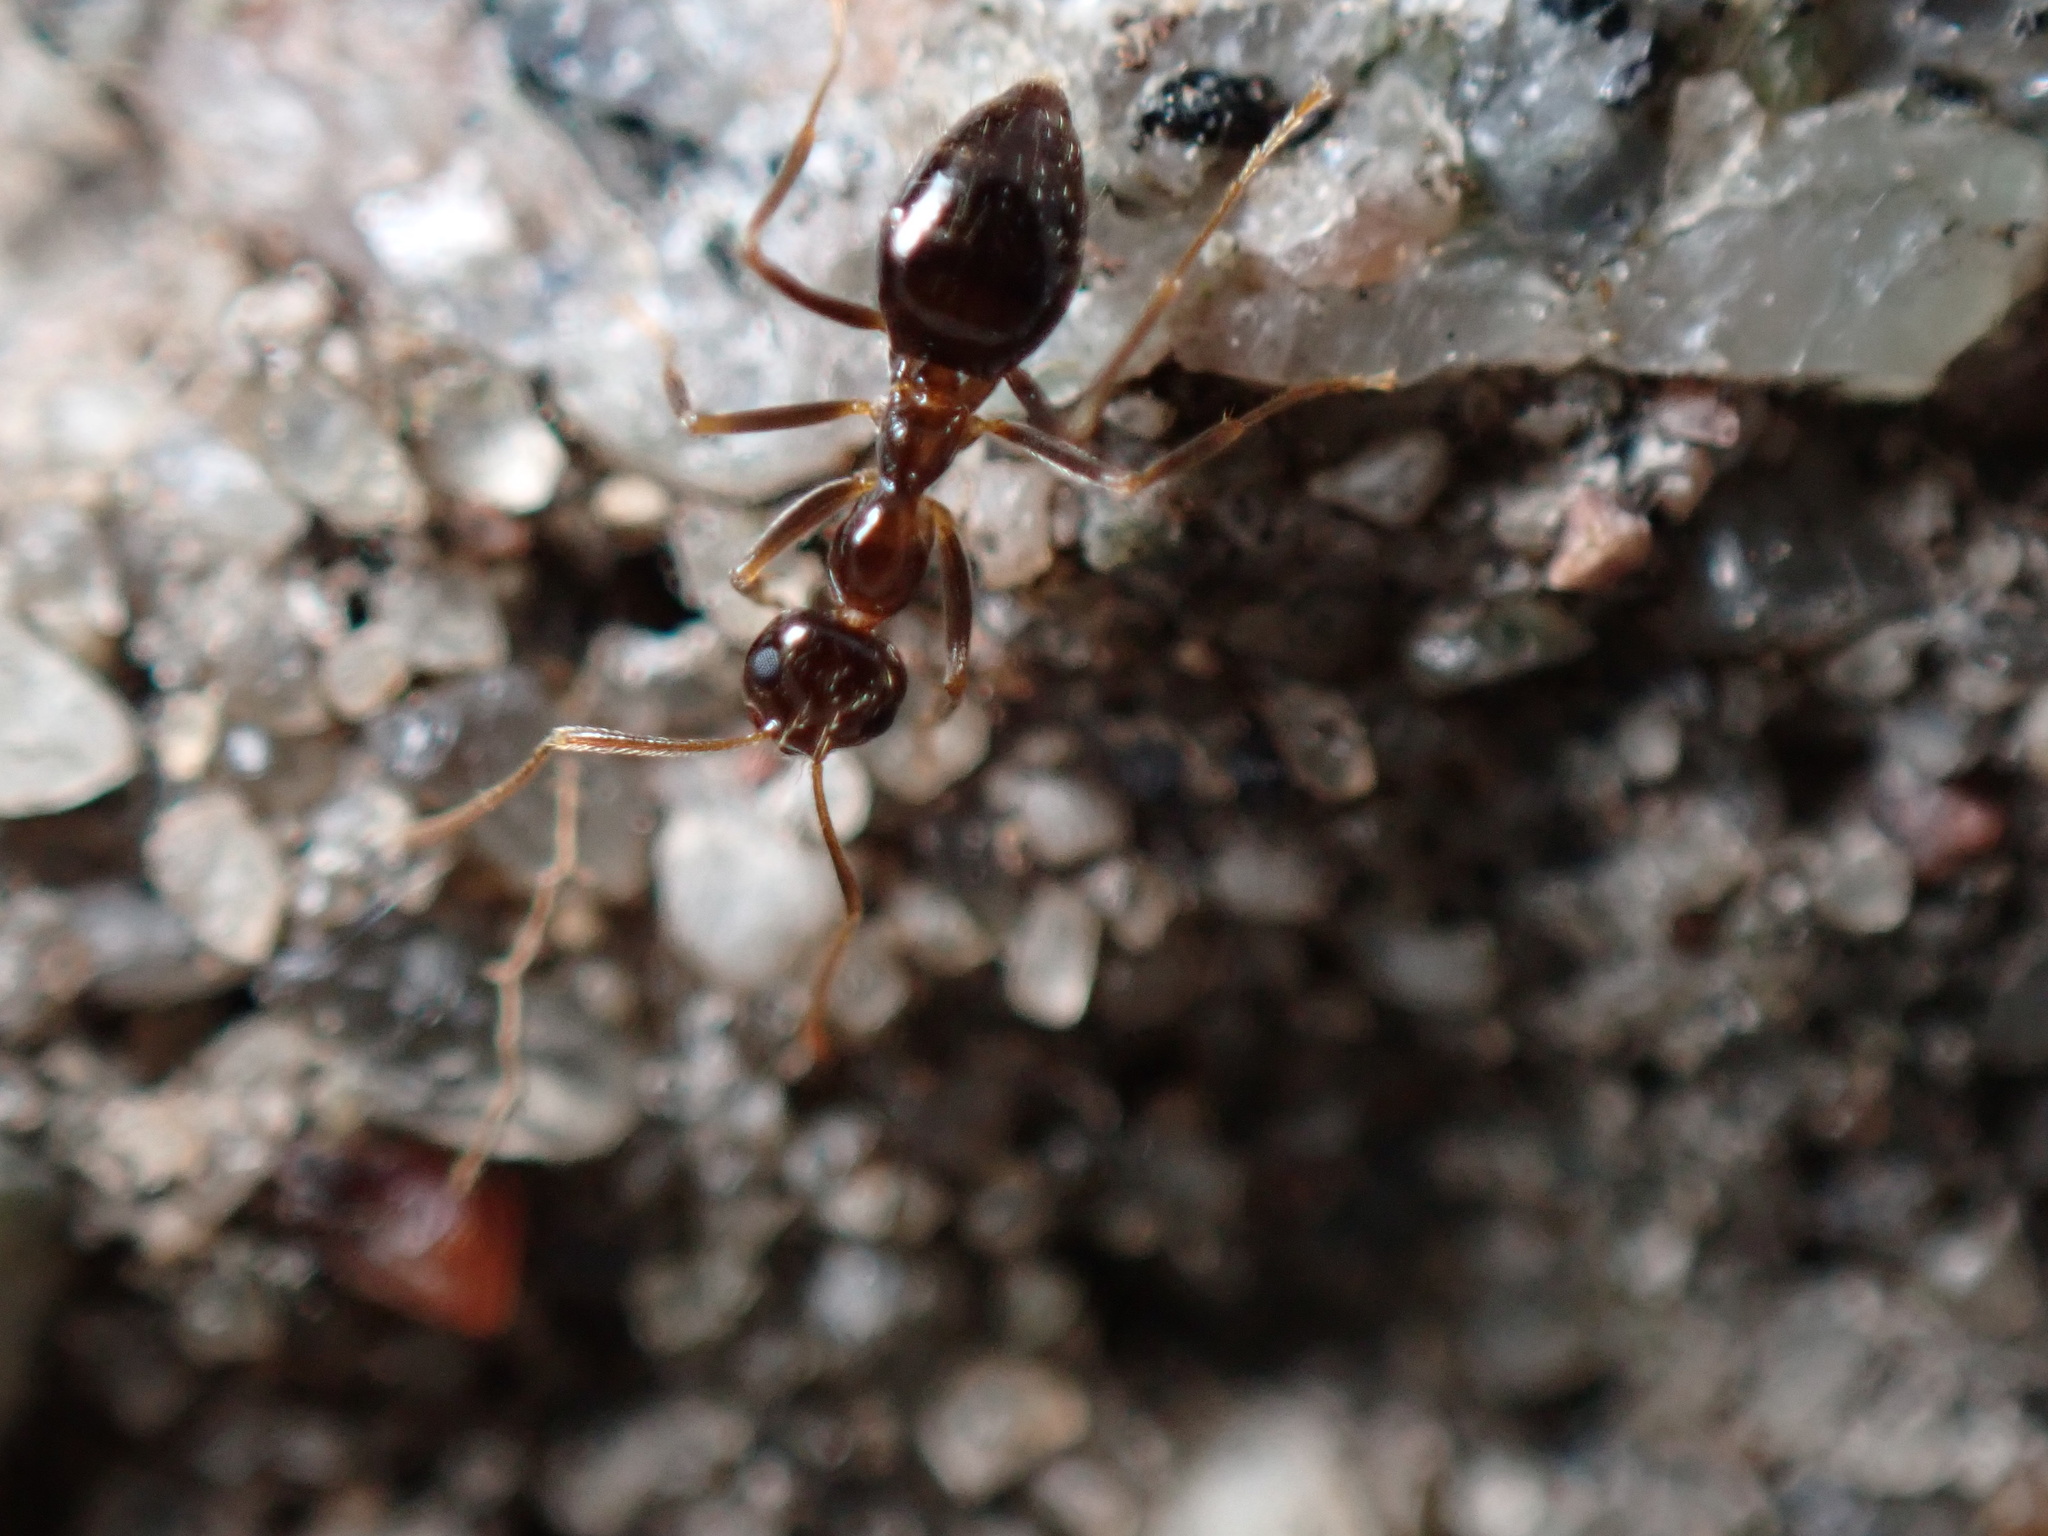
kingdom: Animalia
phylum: Arthropoda
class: Insecta
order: Hymenoptera
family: Formicidae
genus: Prenolepis
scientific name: Prenolepis imparis
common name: Small honey ant
